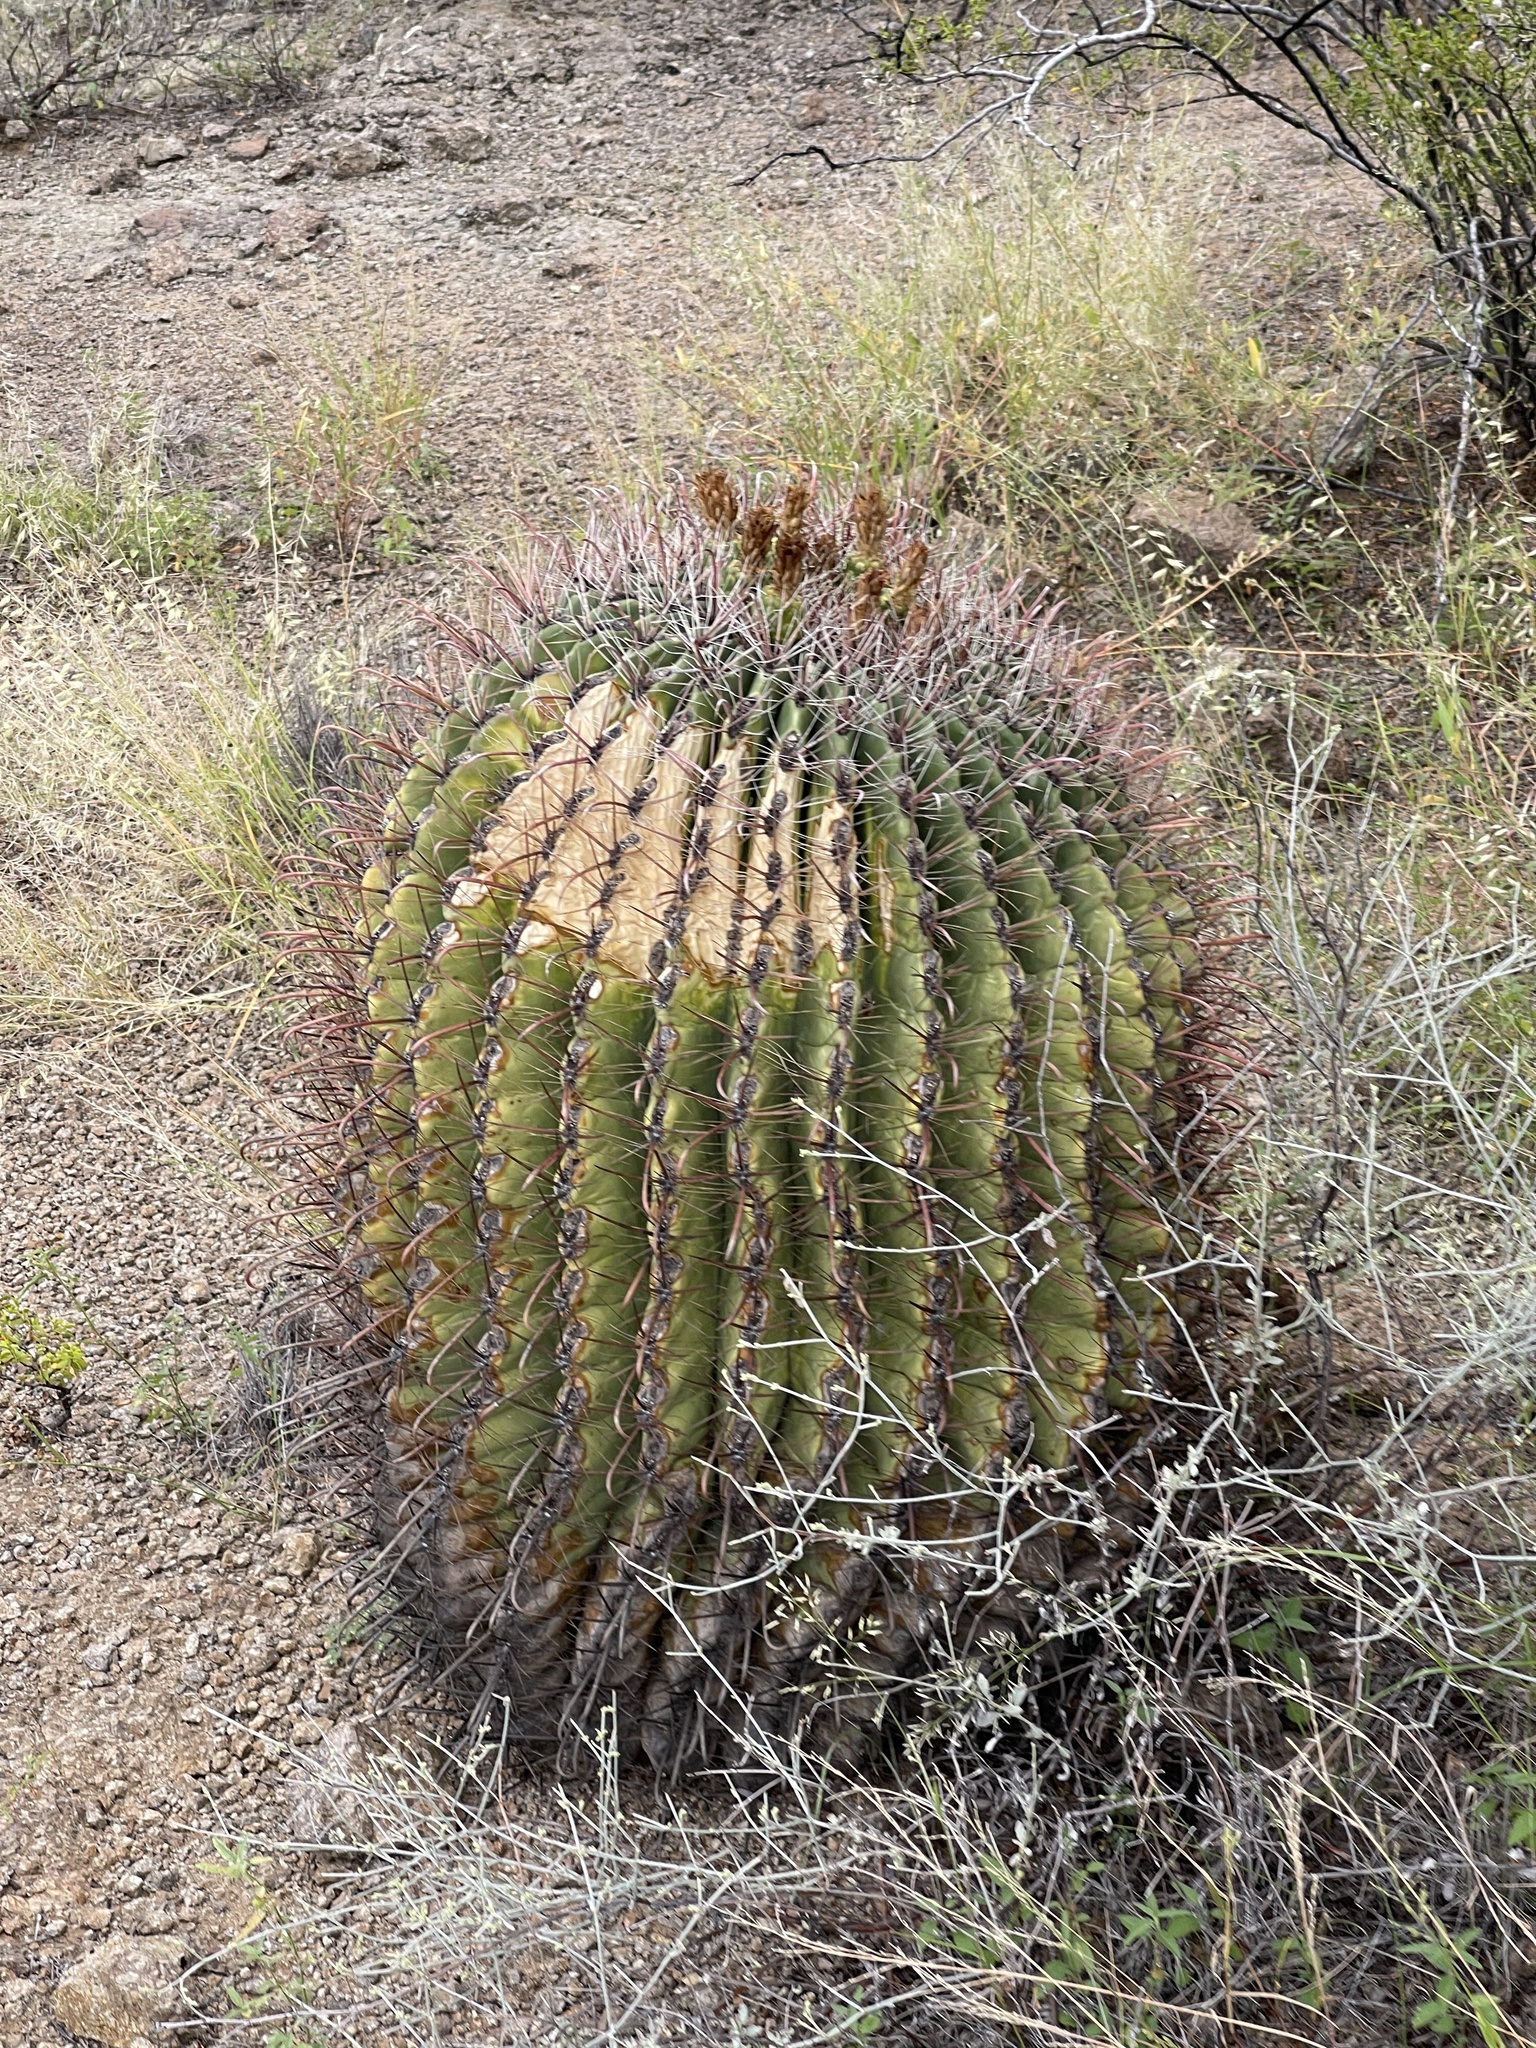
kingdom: Plantae
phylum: Tracheophyta
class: Magnoliopsida
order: Caryophyllales
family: Cactaceae
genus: Ferocactus
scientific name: Ferocactus wislizeni
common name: Candy barrel cactus
